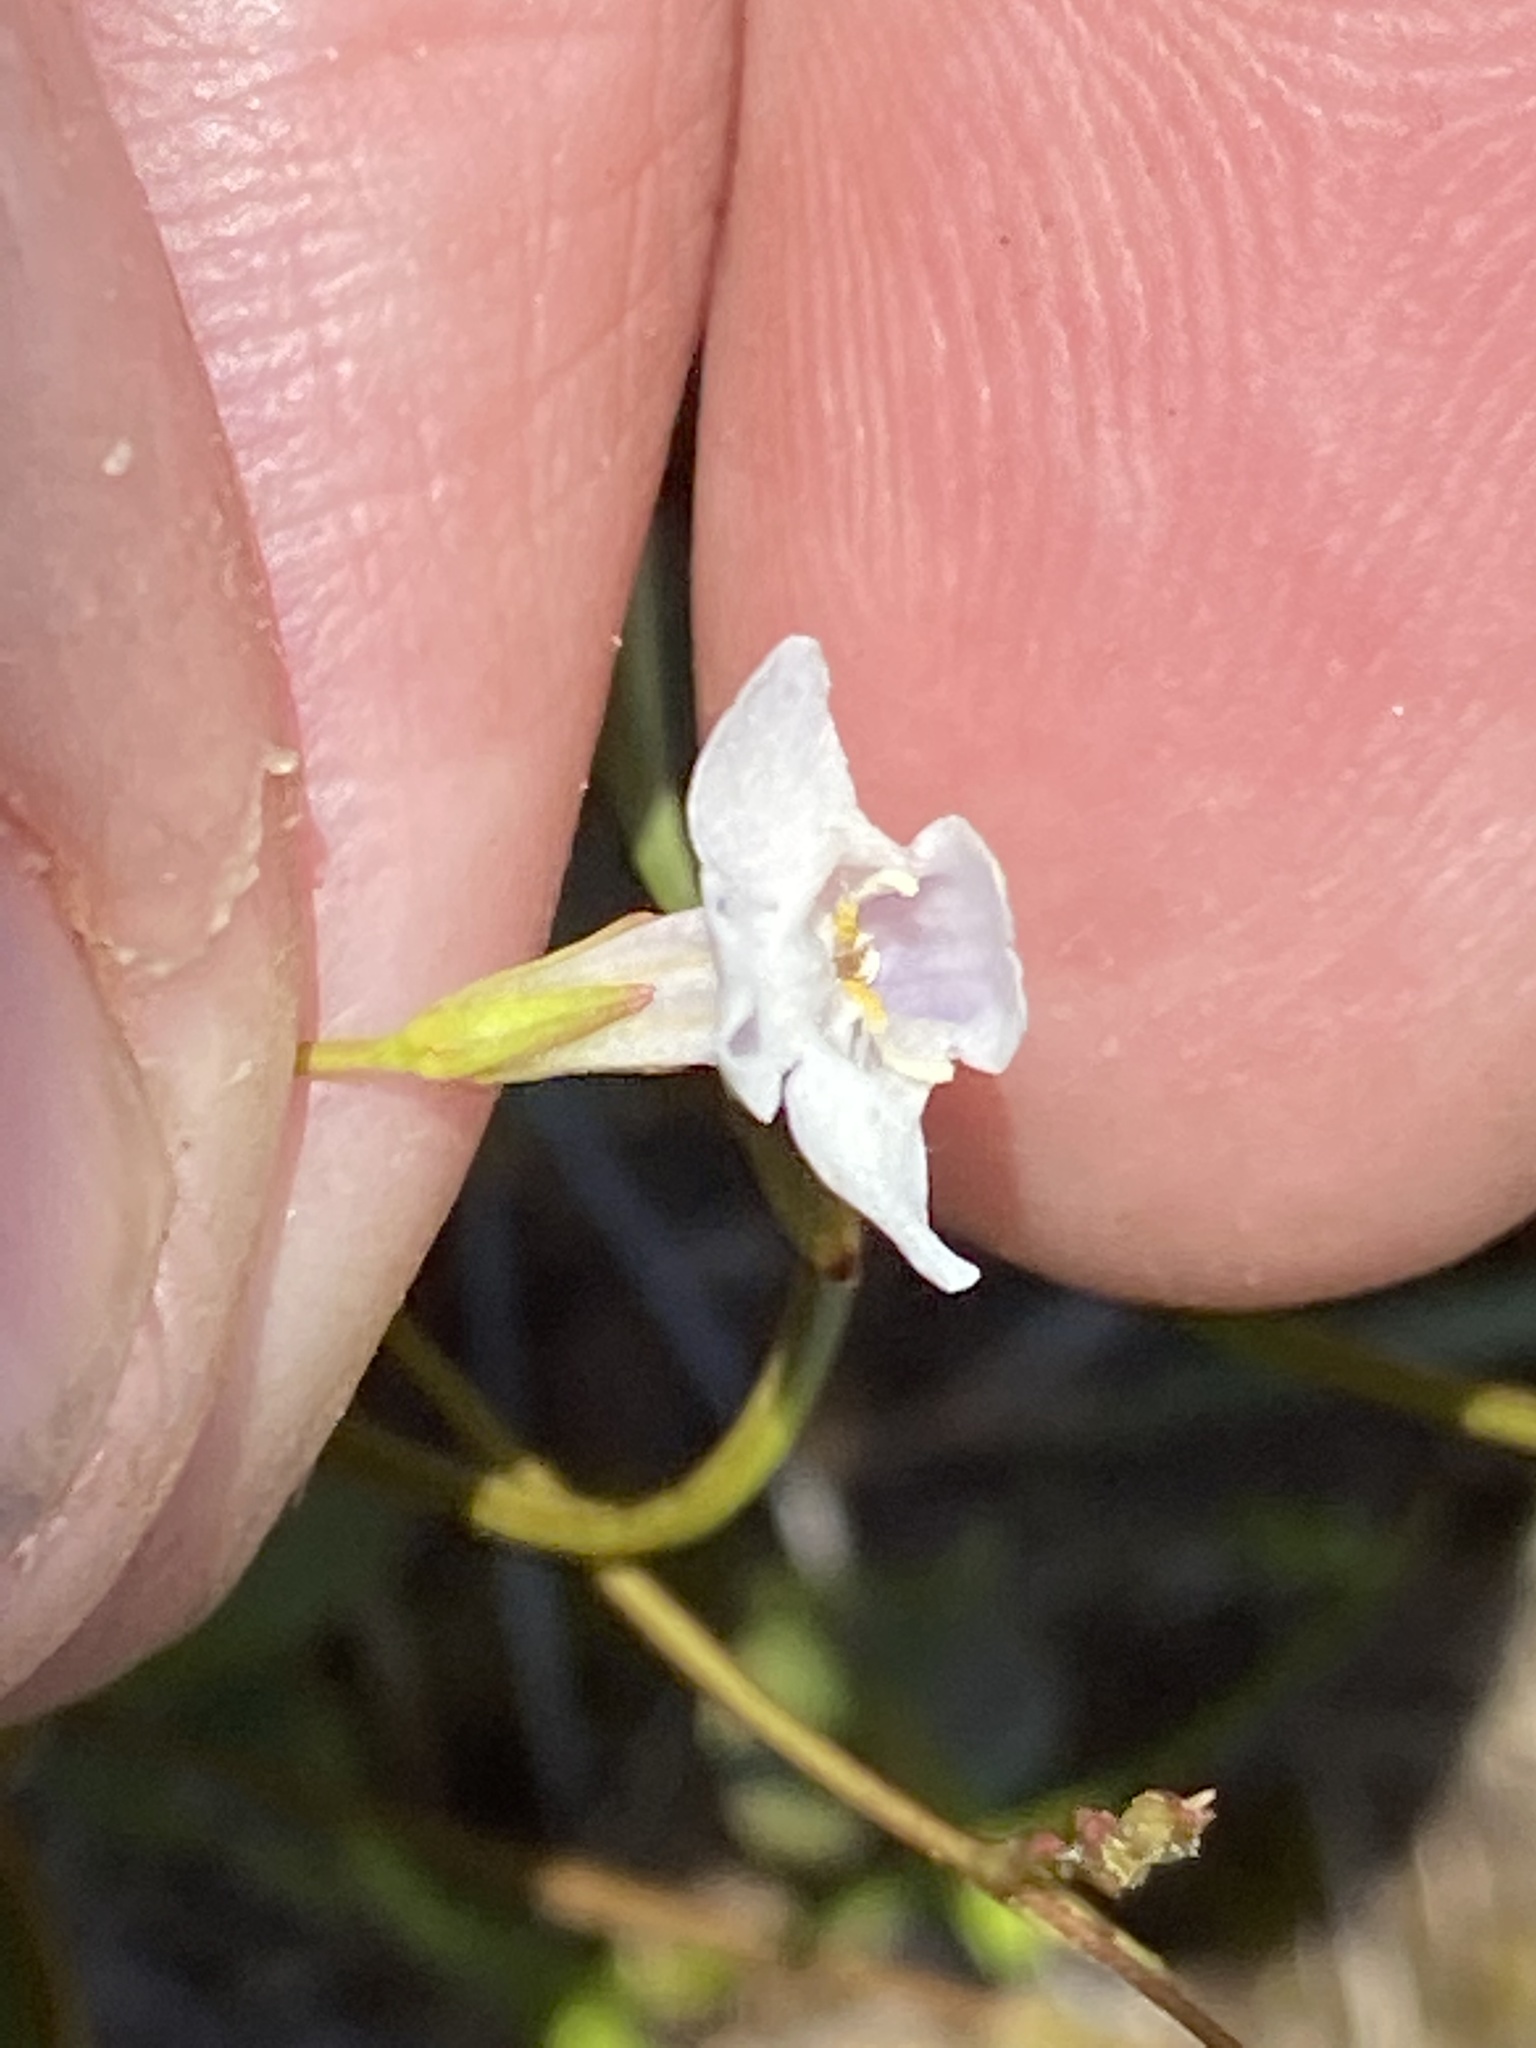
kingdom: Plantae
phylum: Tracheophyta
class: Magnoliopsida
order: Lamiales
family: Linderniaceae
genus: Lindernia
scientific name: Lindernia monticola
